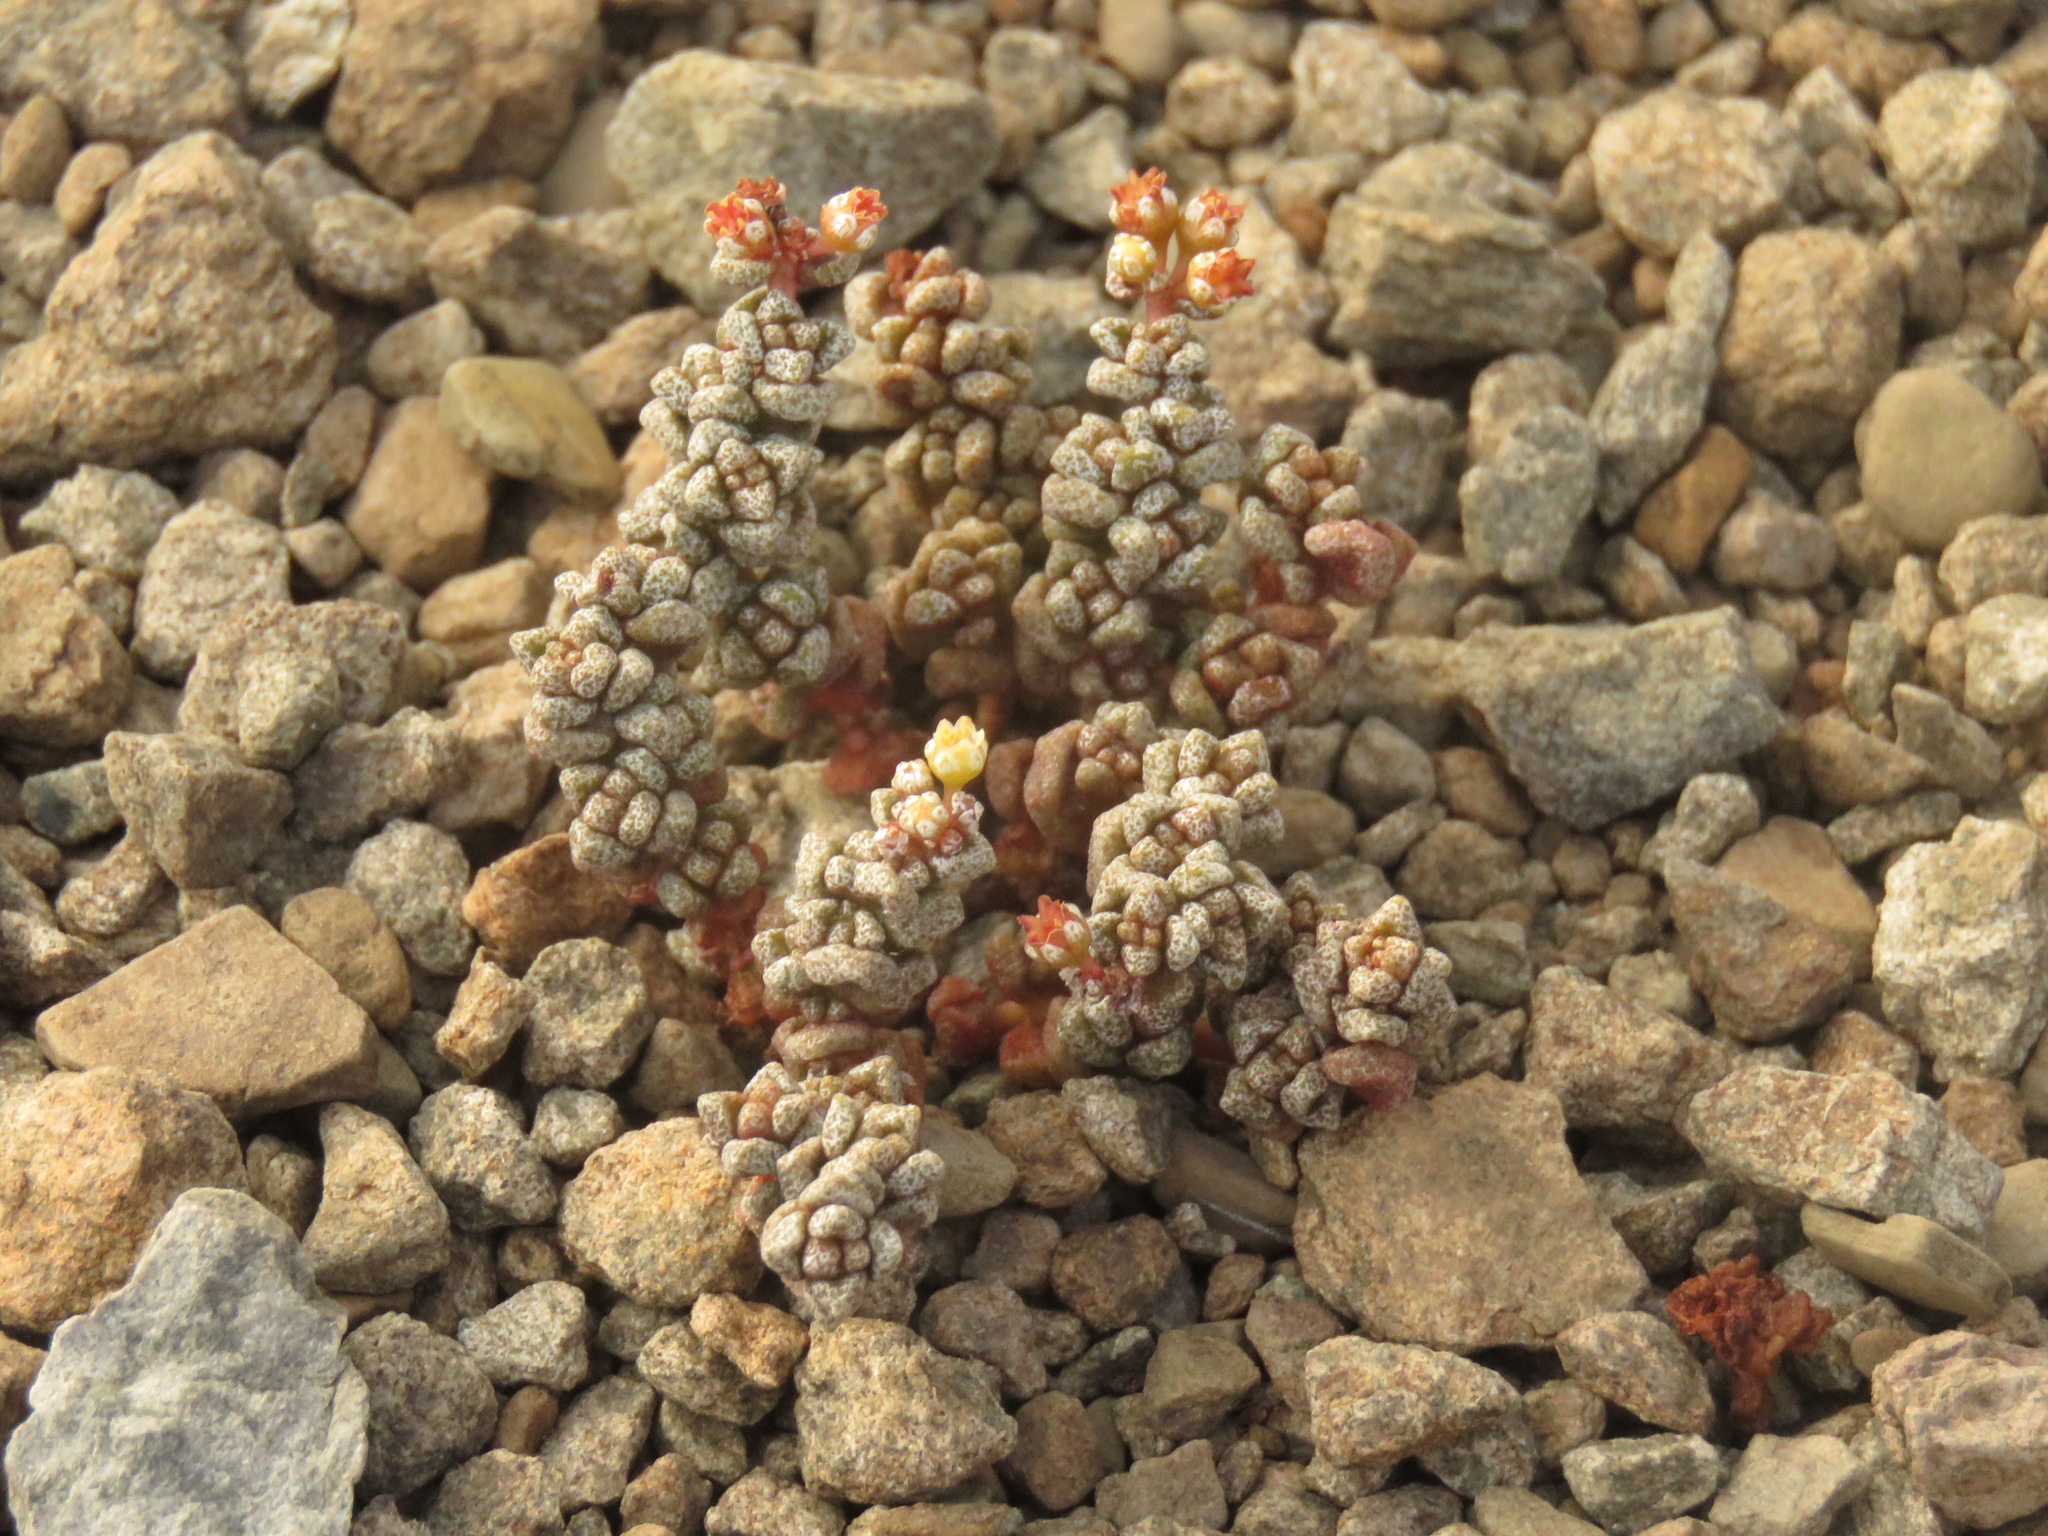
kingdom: Plantae
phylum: Tracheophyta
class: Magnoliopsida
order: Saxifragales
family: Crassulaceae
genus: Crassula
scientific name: Crassula corallina
